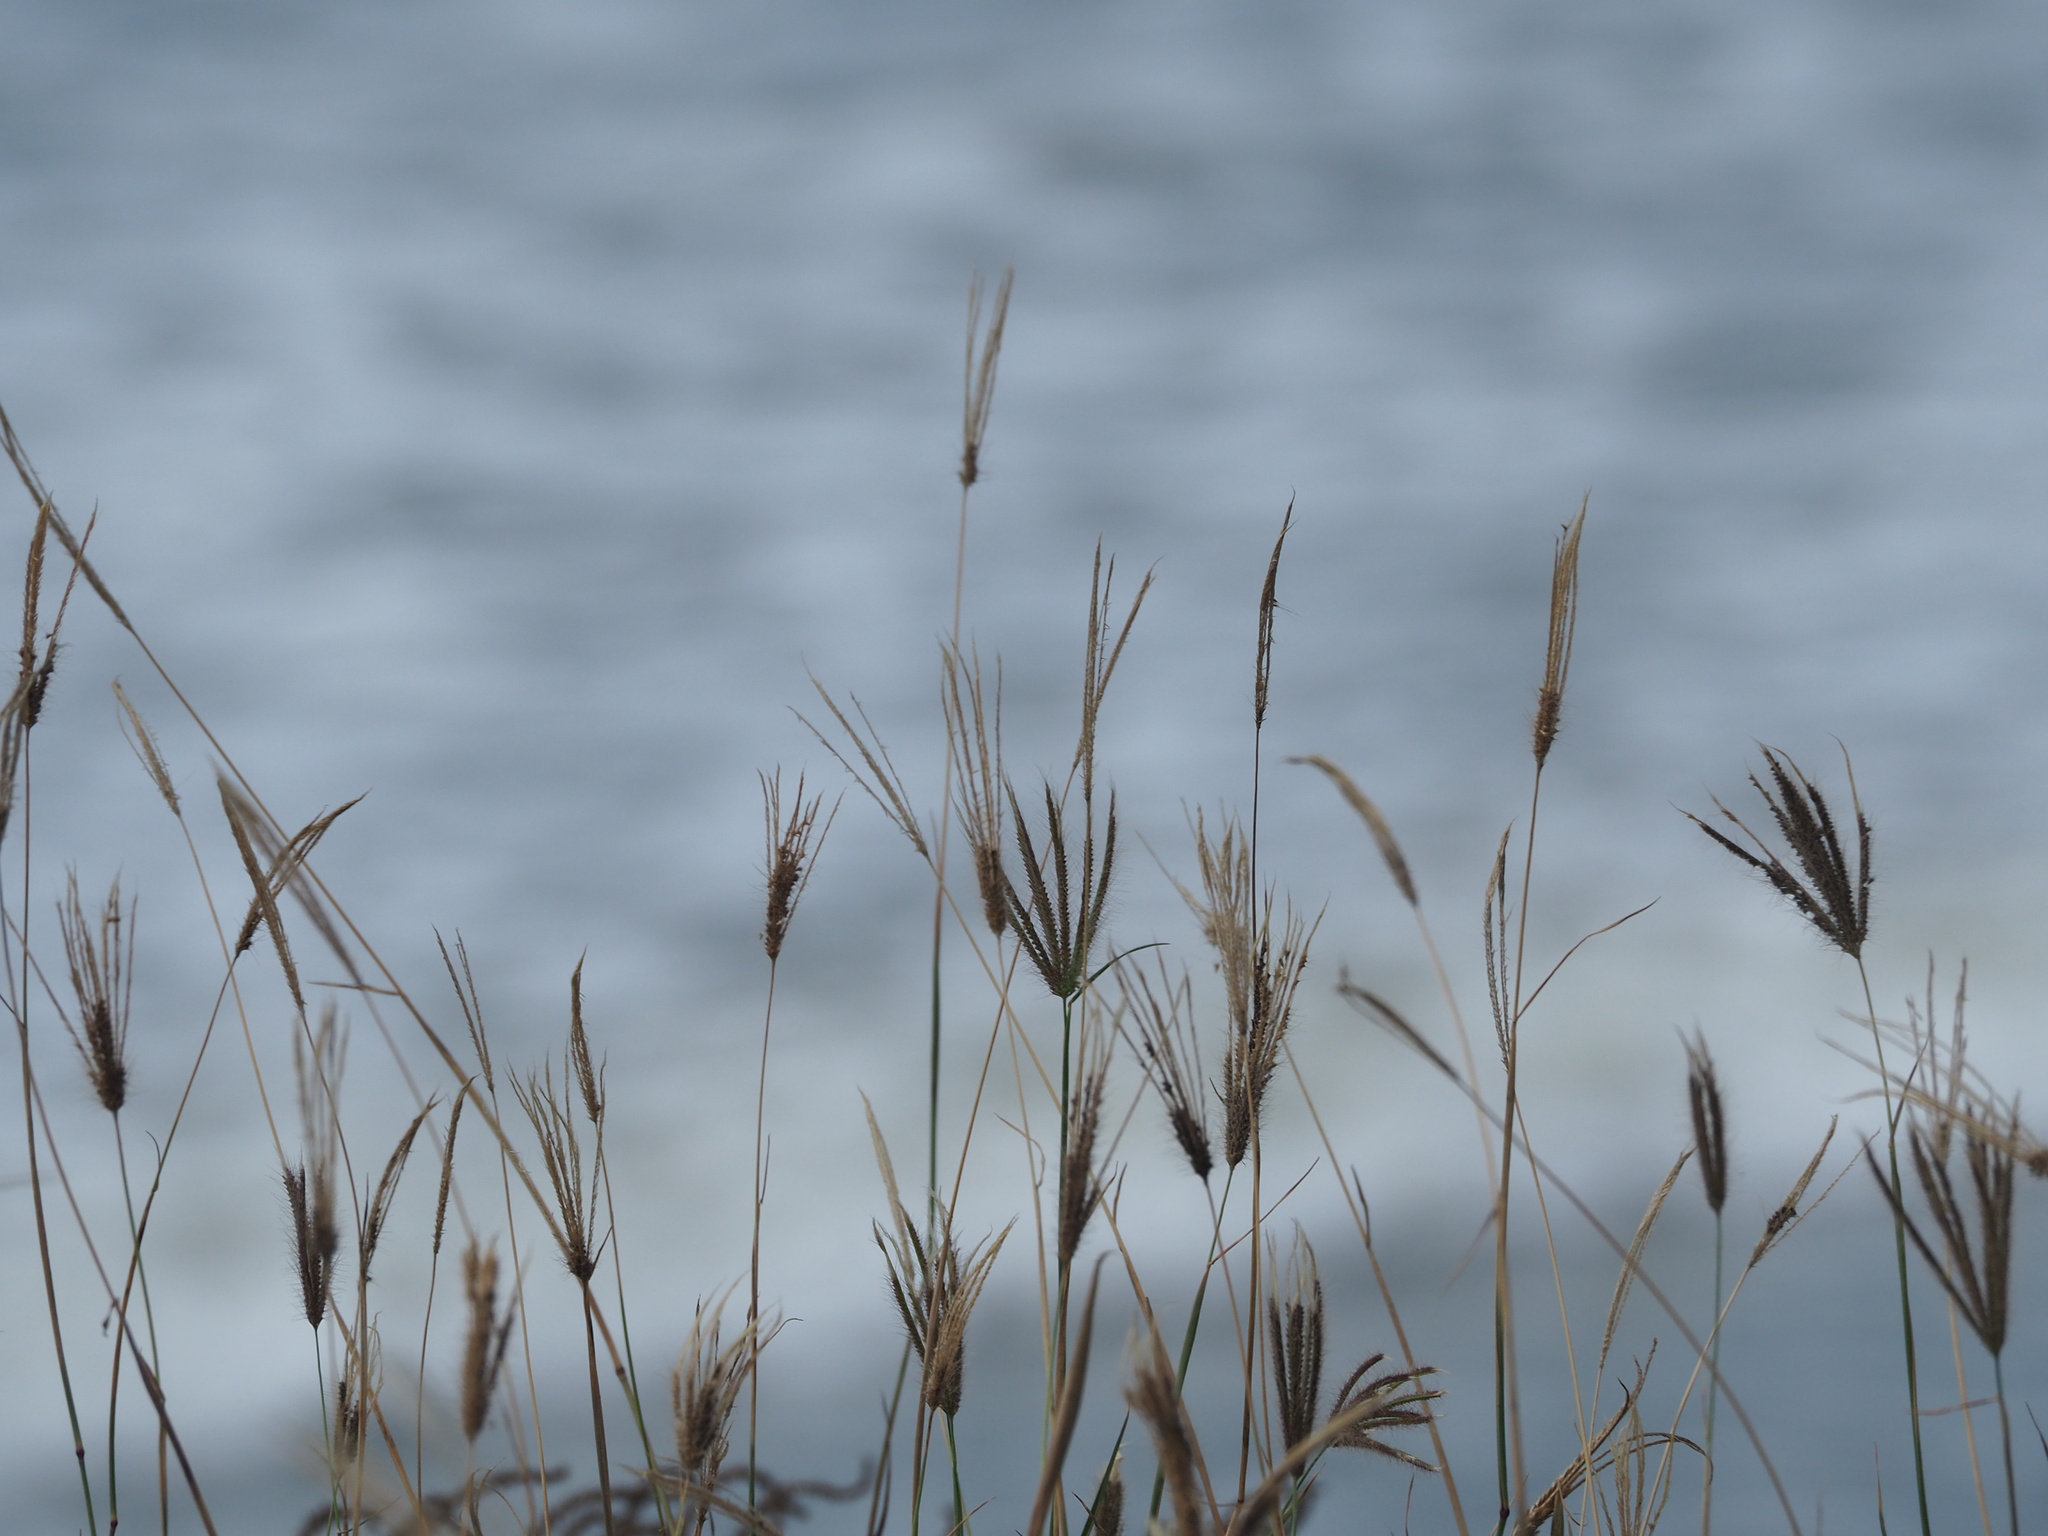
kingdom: Plantae
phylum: Tracheophyta
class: Liliopsida
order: Poales
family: Poaceae
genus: Chloris
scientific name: Chloris barbata
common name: Swollen fingergrass
